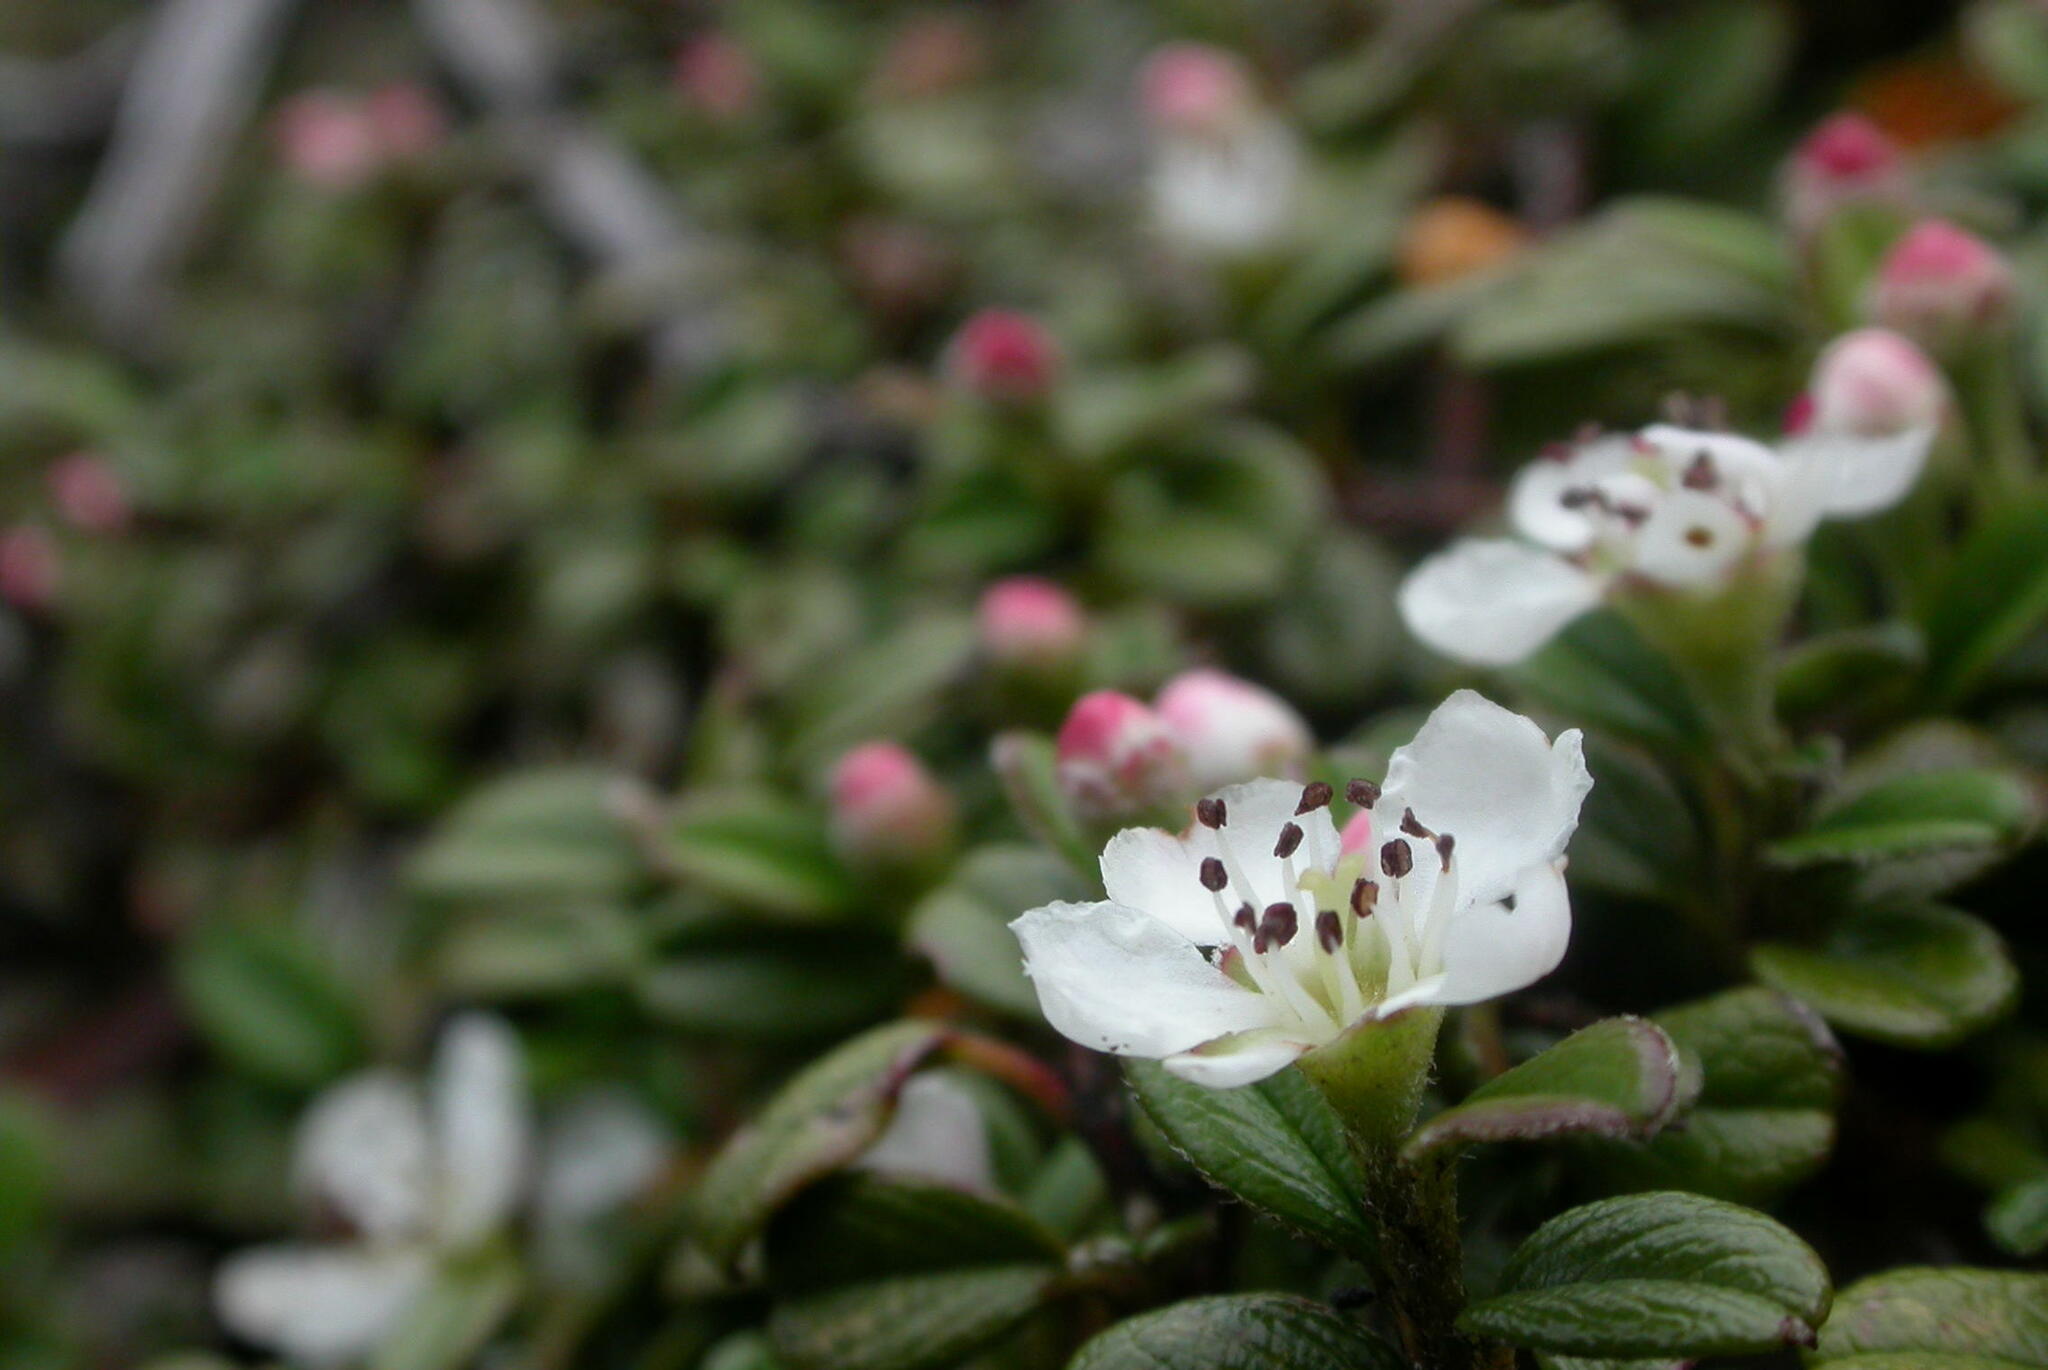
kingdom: Plantae
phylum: Tracheophyta
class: Magnoliopsida
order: Rosales
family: Rosaceae
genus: Cotoneaster
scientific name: Cotoneaster morrisonensis
